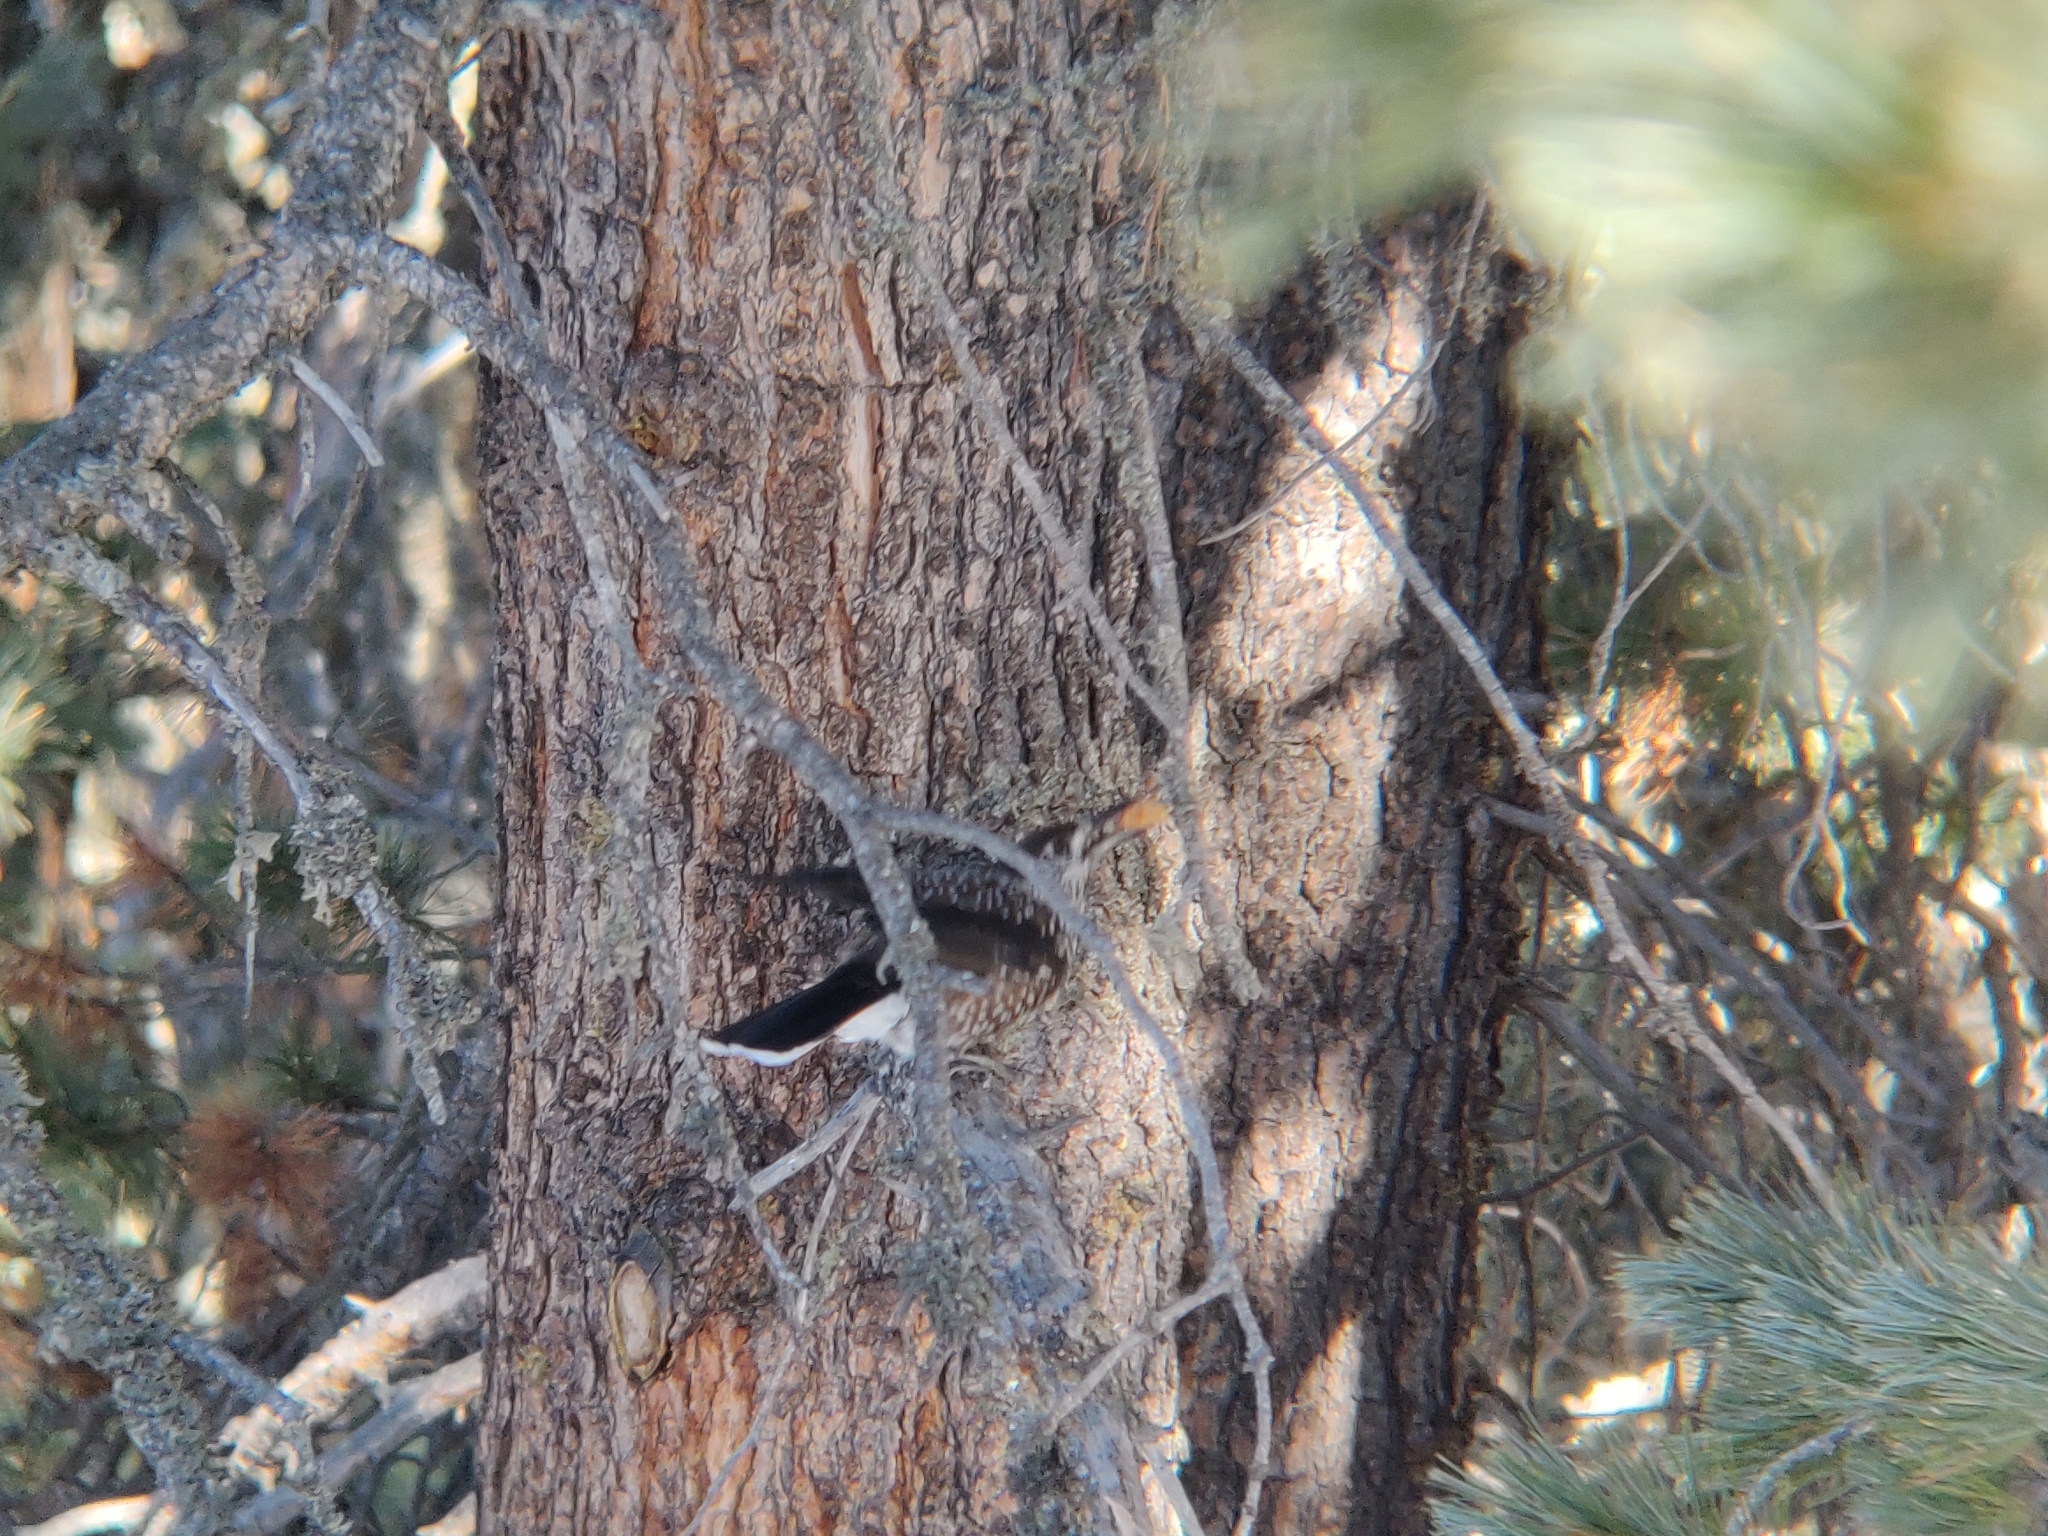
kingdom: Animalia
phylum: Chordata
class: Aves
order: Passeriformes
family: Corvidae
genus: Nucifraga
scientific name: Nucifraga caryocatactes
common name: Spotted nutcracker
